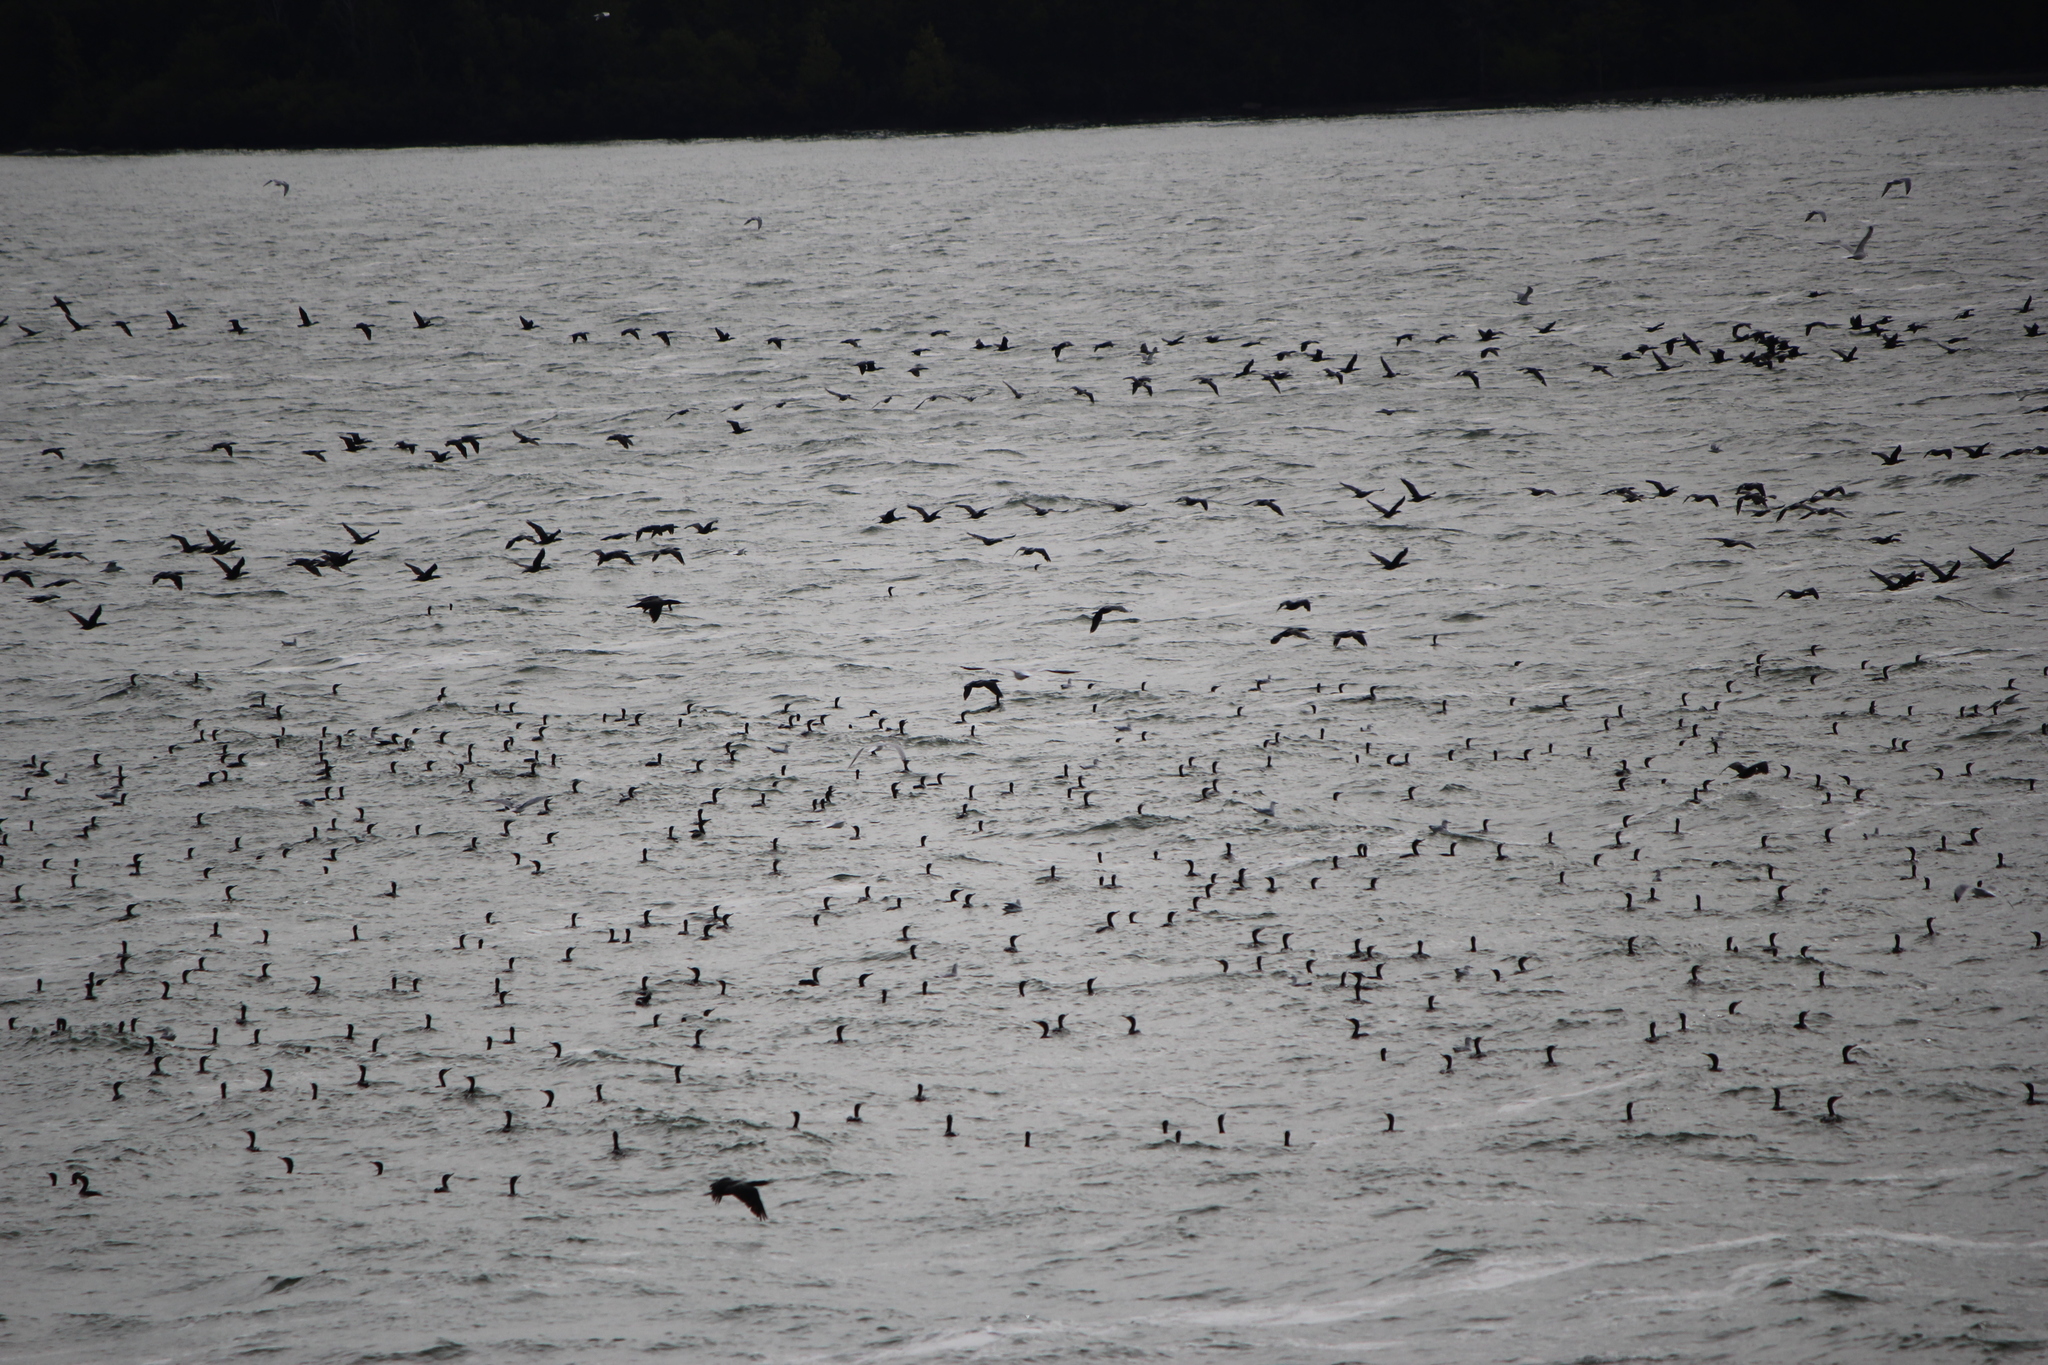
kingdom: Animalia
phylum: Chordata
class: Aves
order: Suliformes
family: Phalacrocoracidae
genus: Phalacrocorax
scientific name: Phalacrocorax auritus
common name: Double-crested cormorant
